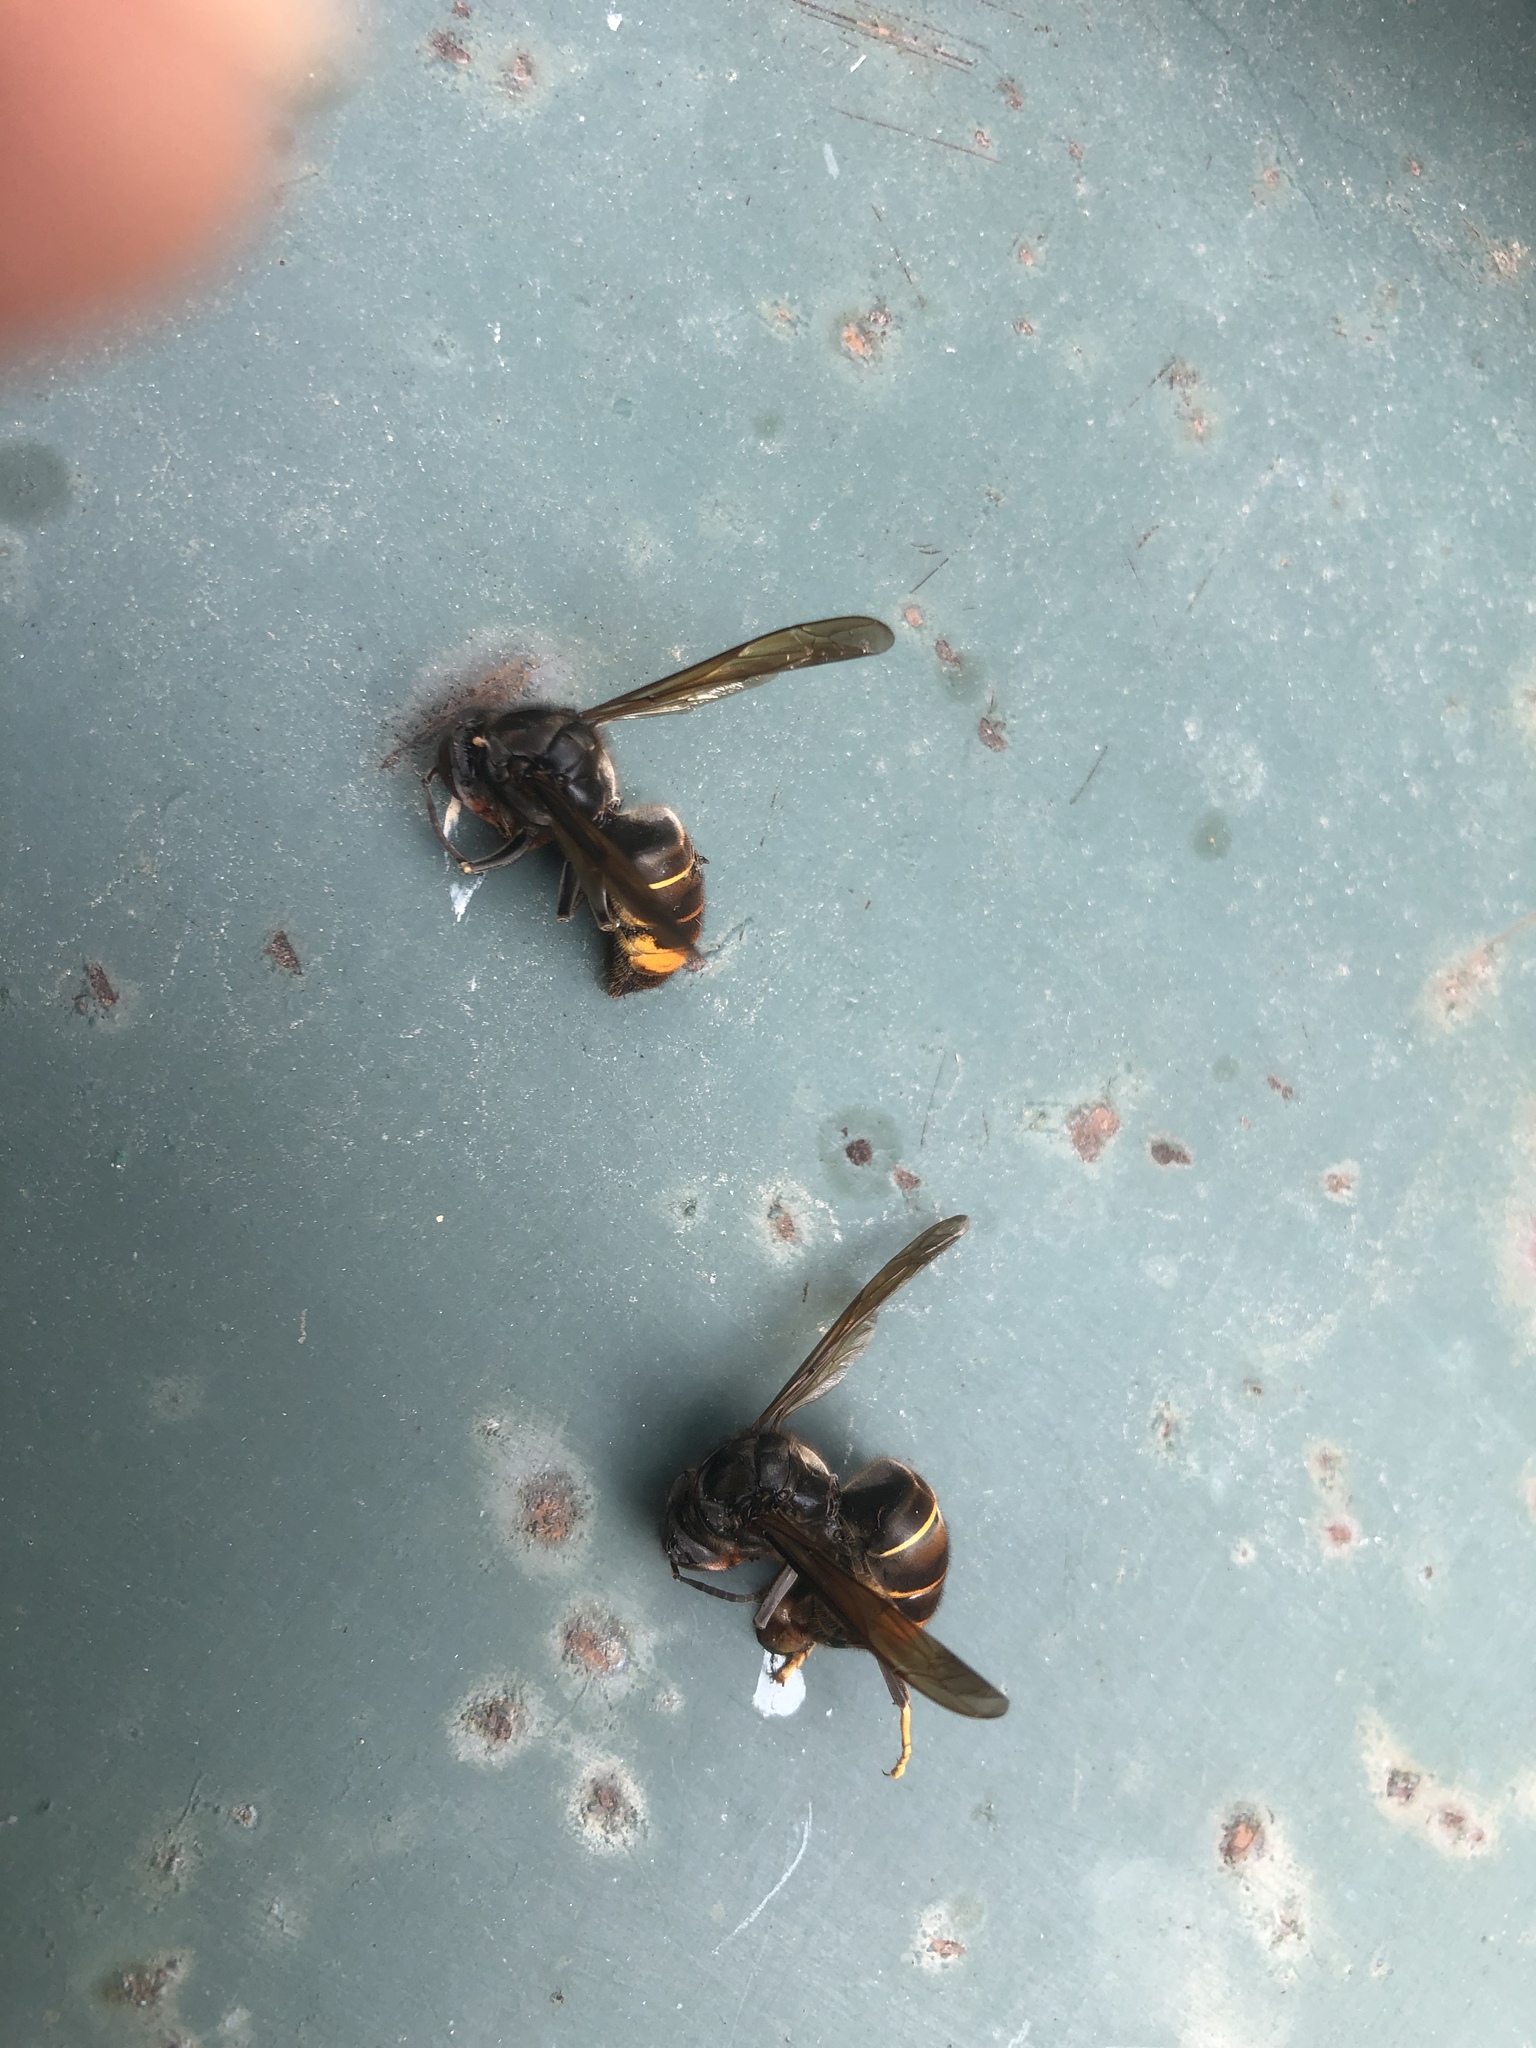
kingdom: Animalia
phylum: Arthropoda
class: Insecta
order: Hymenoptera
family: Vespidae
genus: Vespa
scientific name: Vespa velutina
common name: Asian hornet
